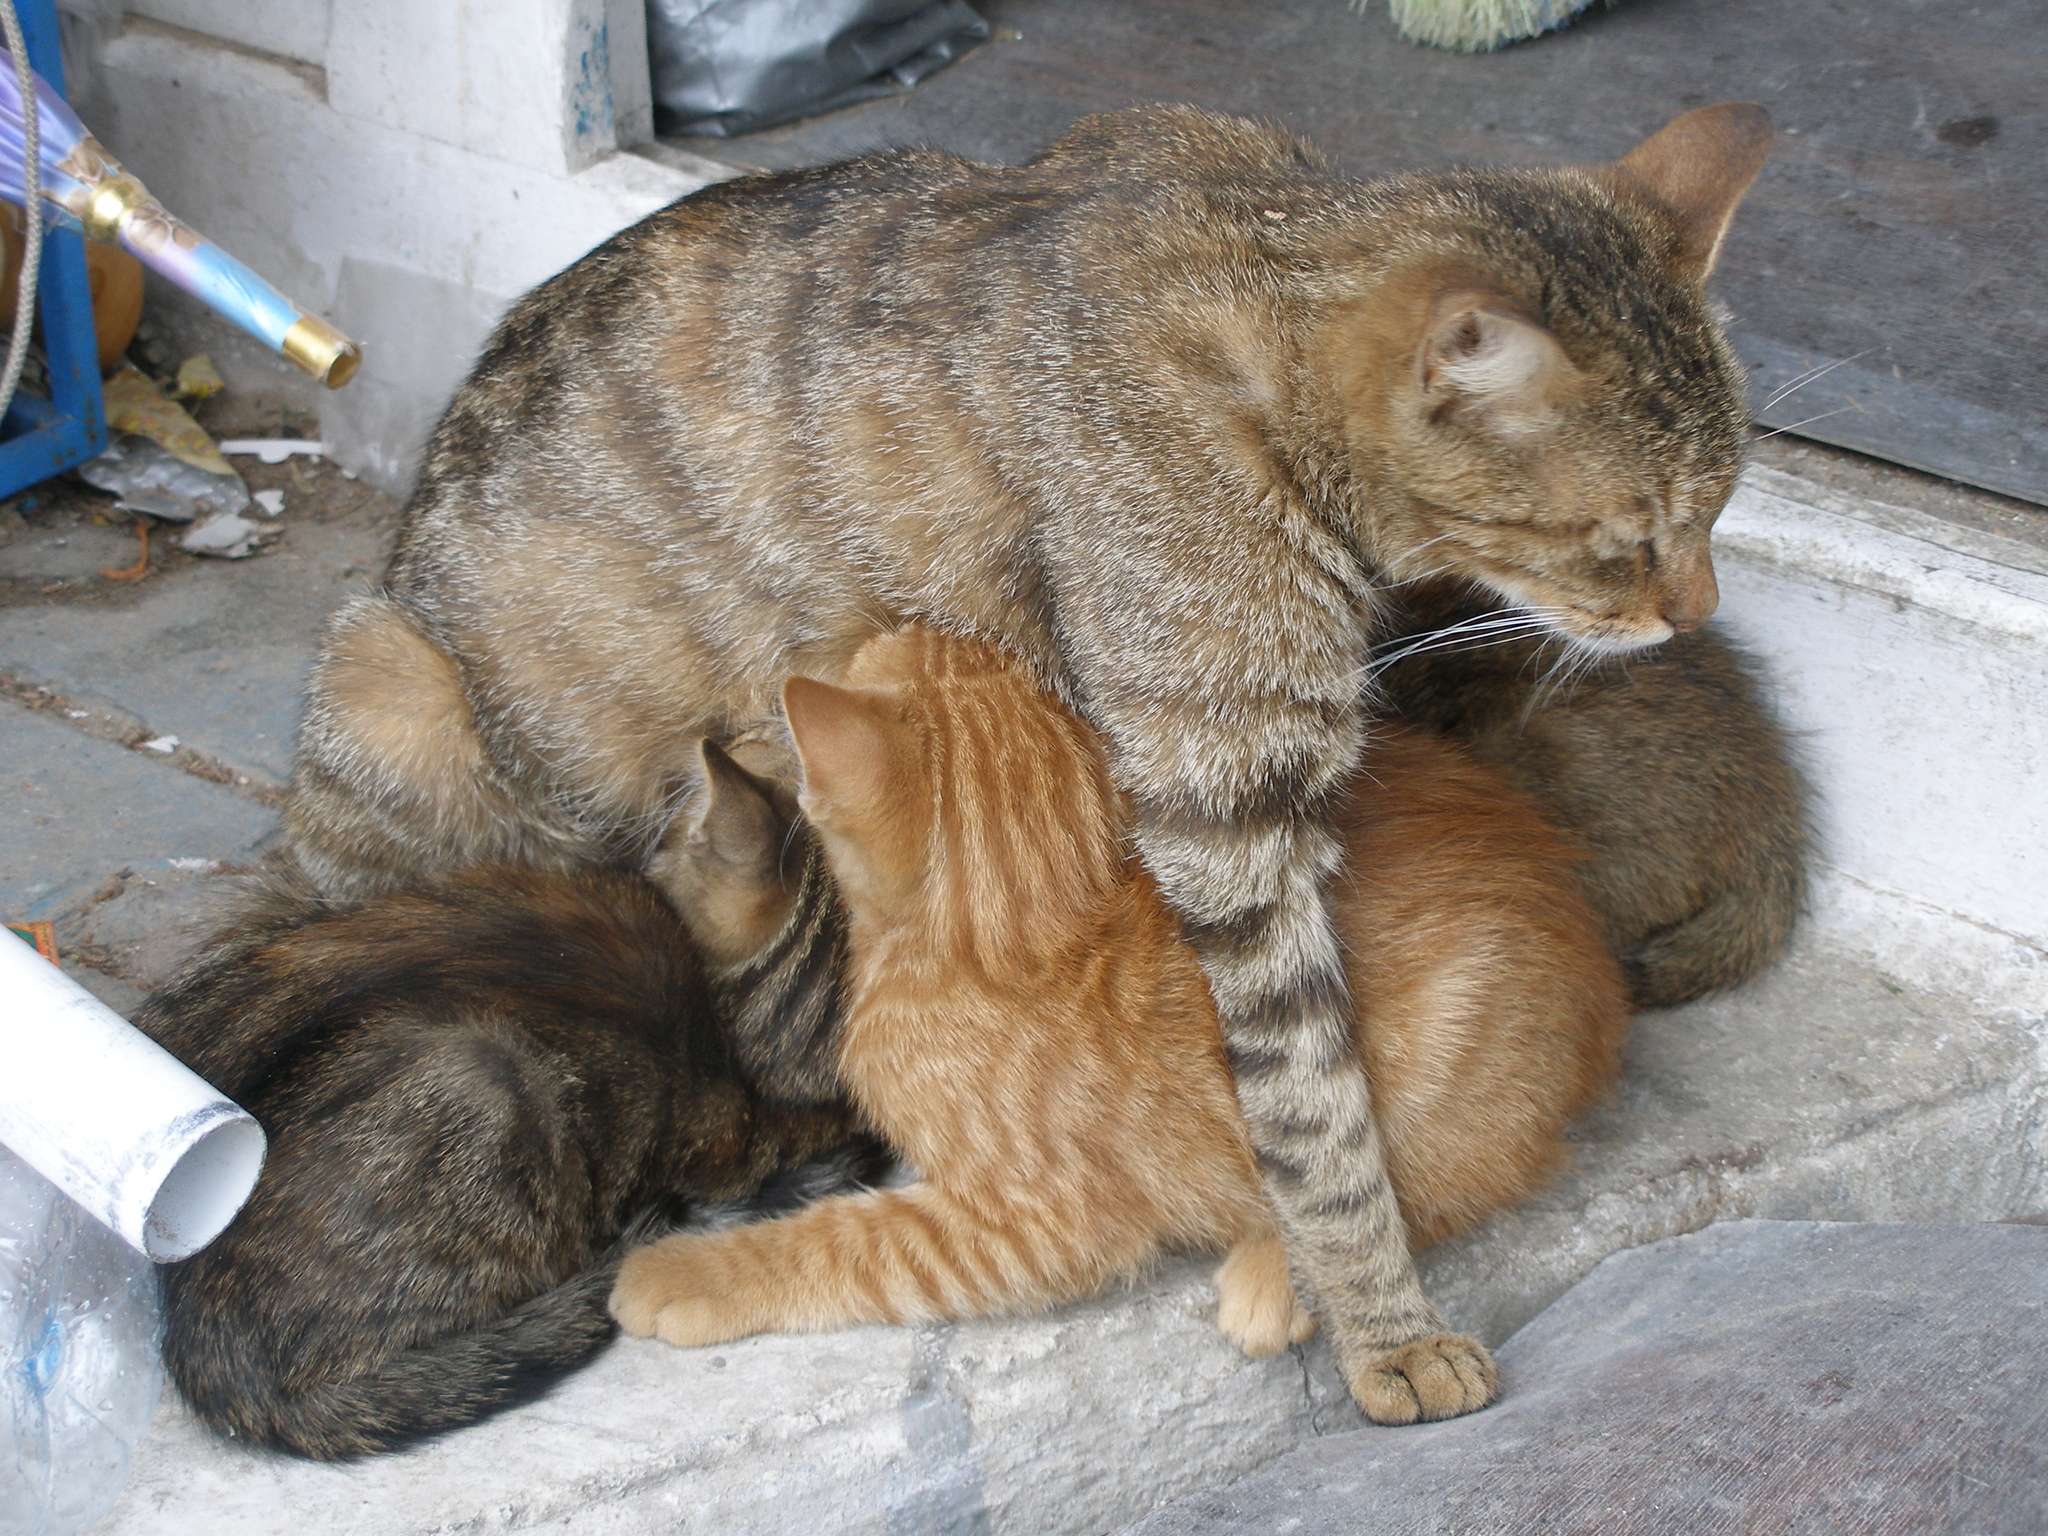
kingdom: Animalia
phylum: Chordata
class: Mammalia
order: Carnivora
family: Felidae
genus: Felis
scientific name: Felis catus
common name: Domestic cat
